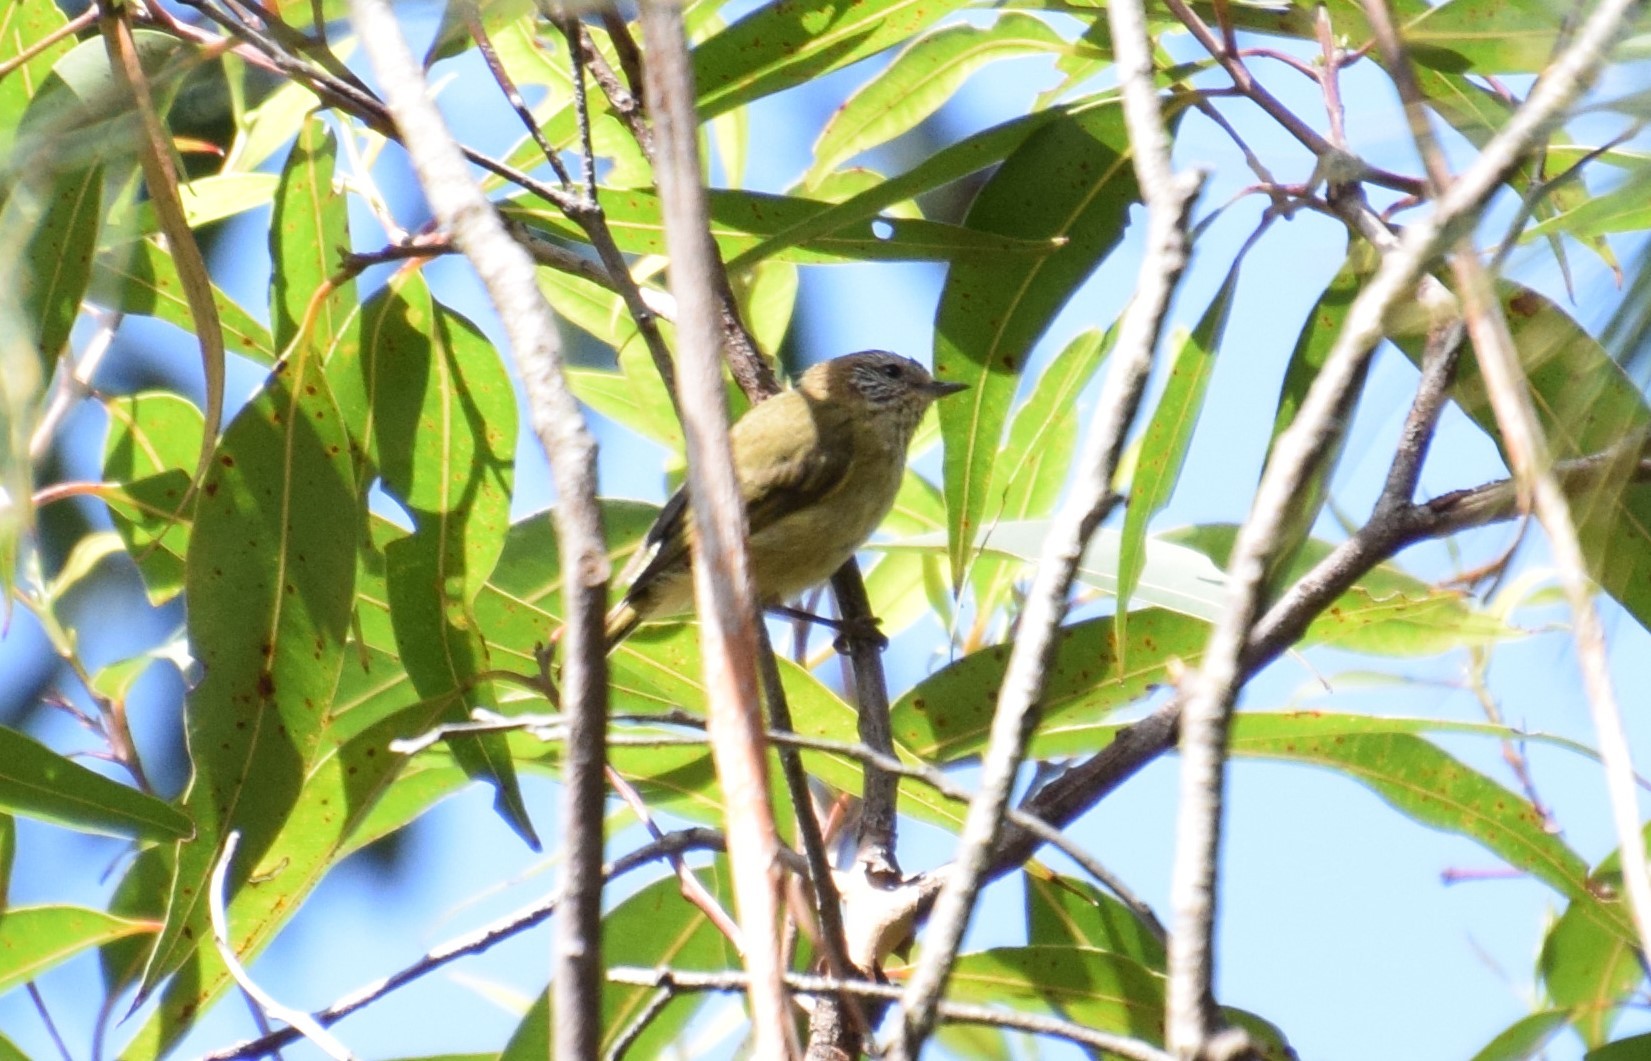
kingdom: Animalia
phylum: Chordata
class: Aves
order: Passeriformes
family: Acanthizidae
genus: Acanthiza
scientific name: Acanthiza lineata
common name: Striated thornbill
